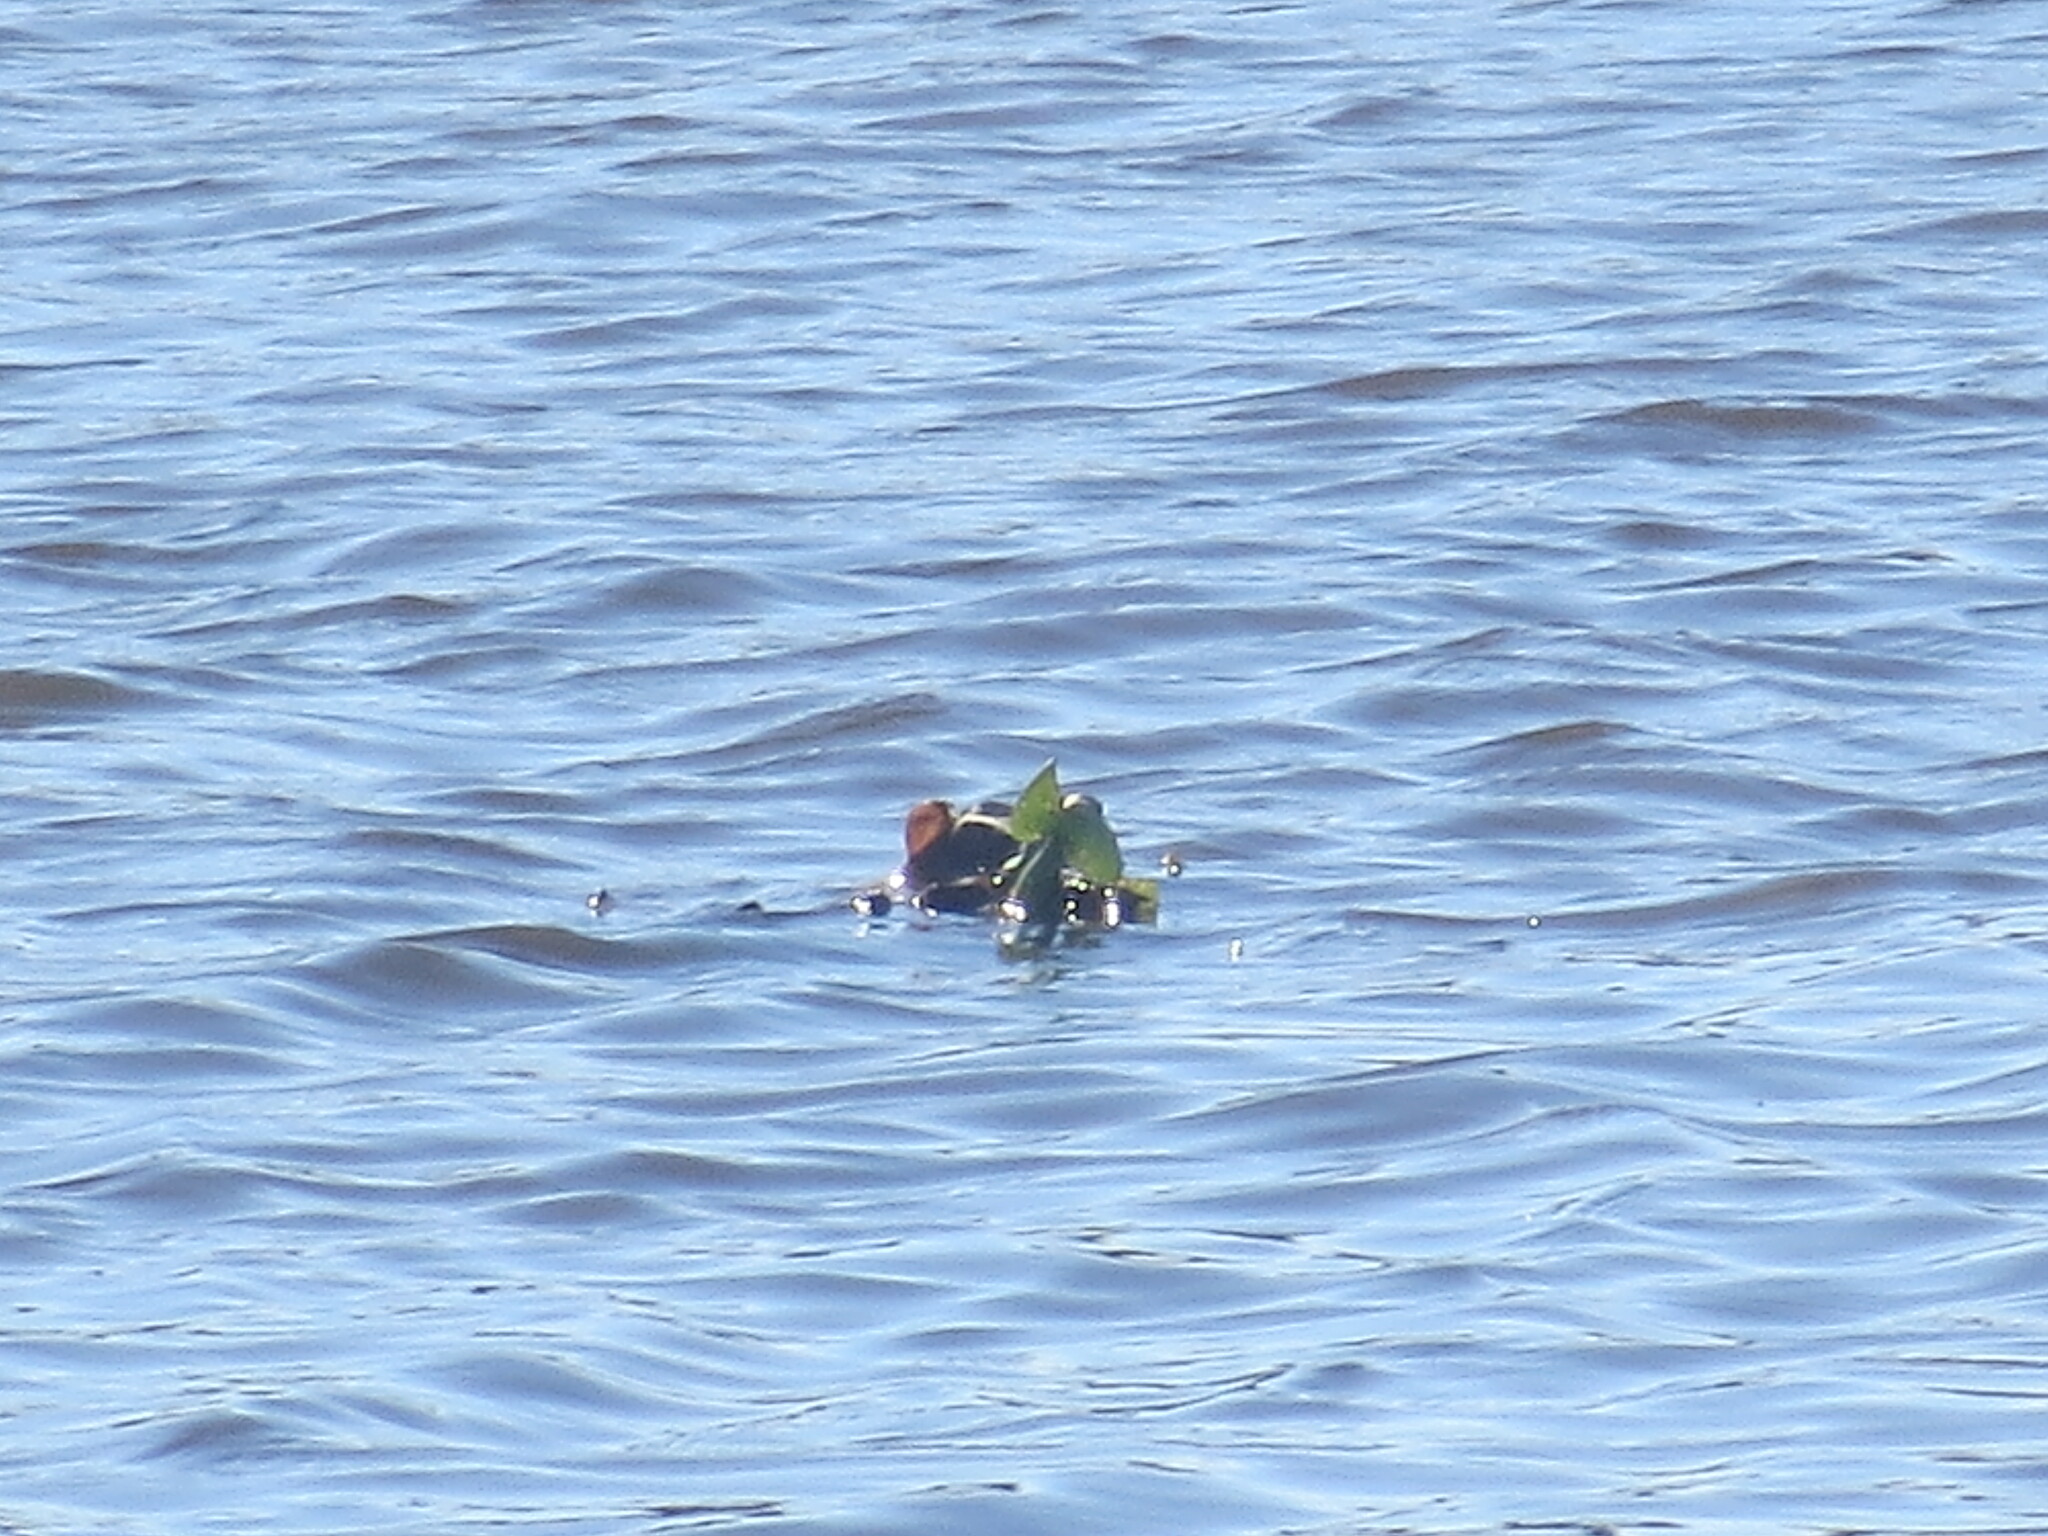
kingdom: Plantae
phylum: Tracheophyta
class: Liliopsida
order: Commelinales
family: Pontederiaceae
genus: Pontederia
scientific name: Pontederia crassipes
